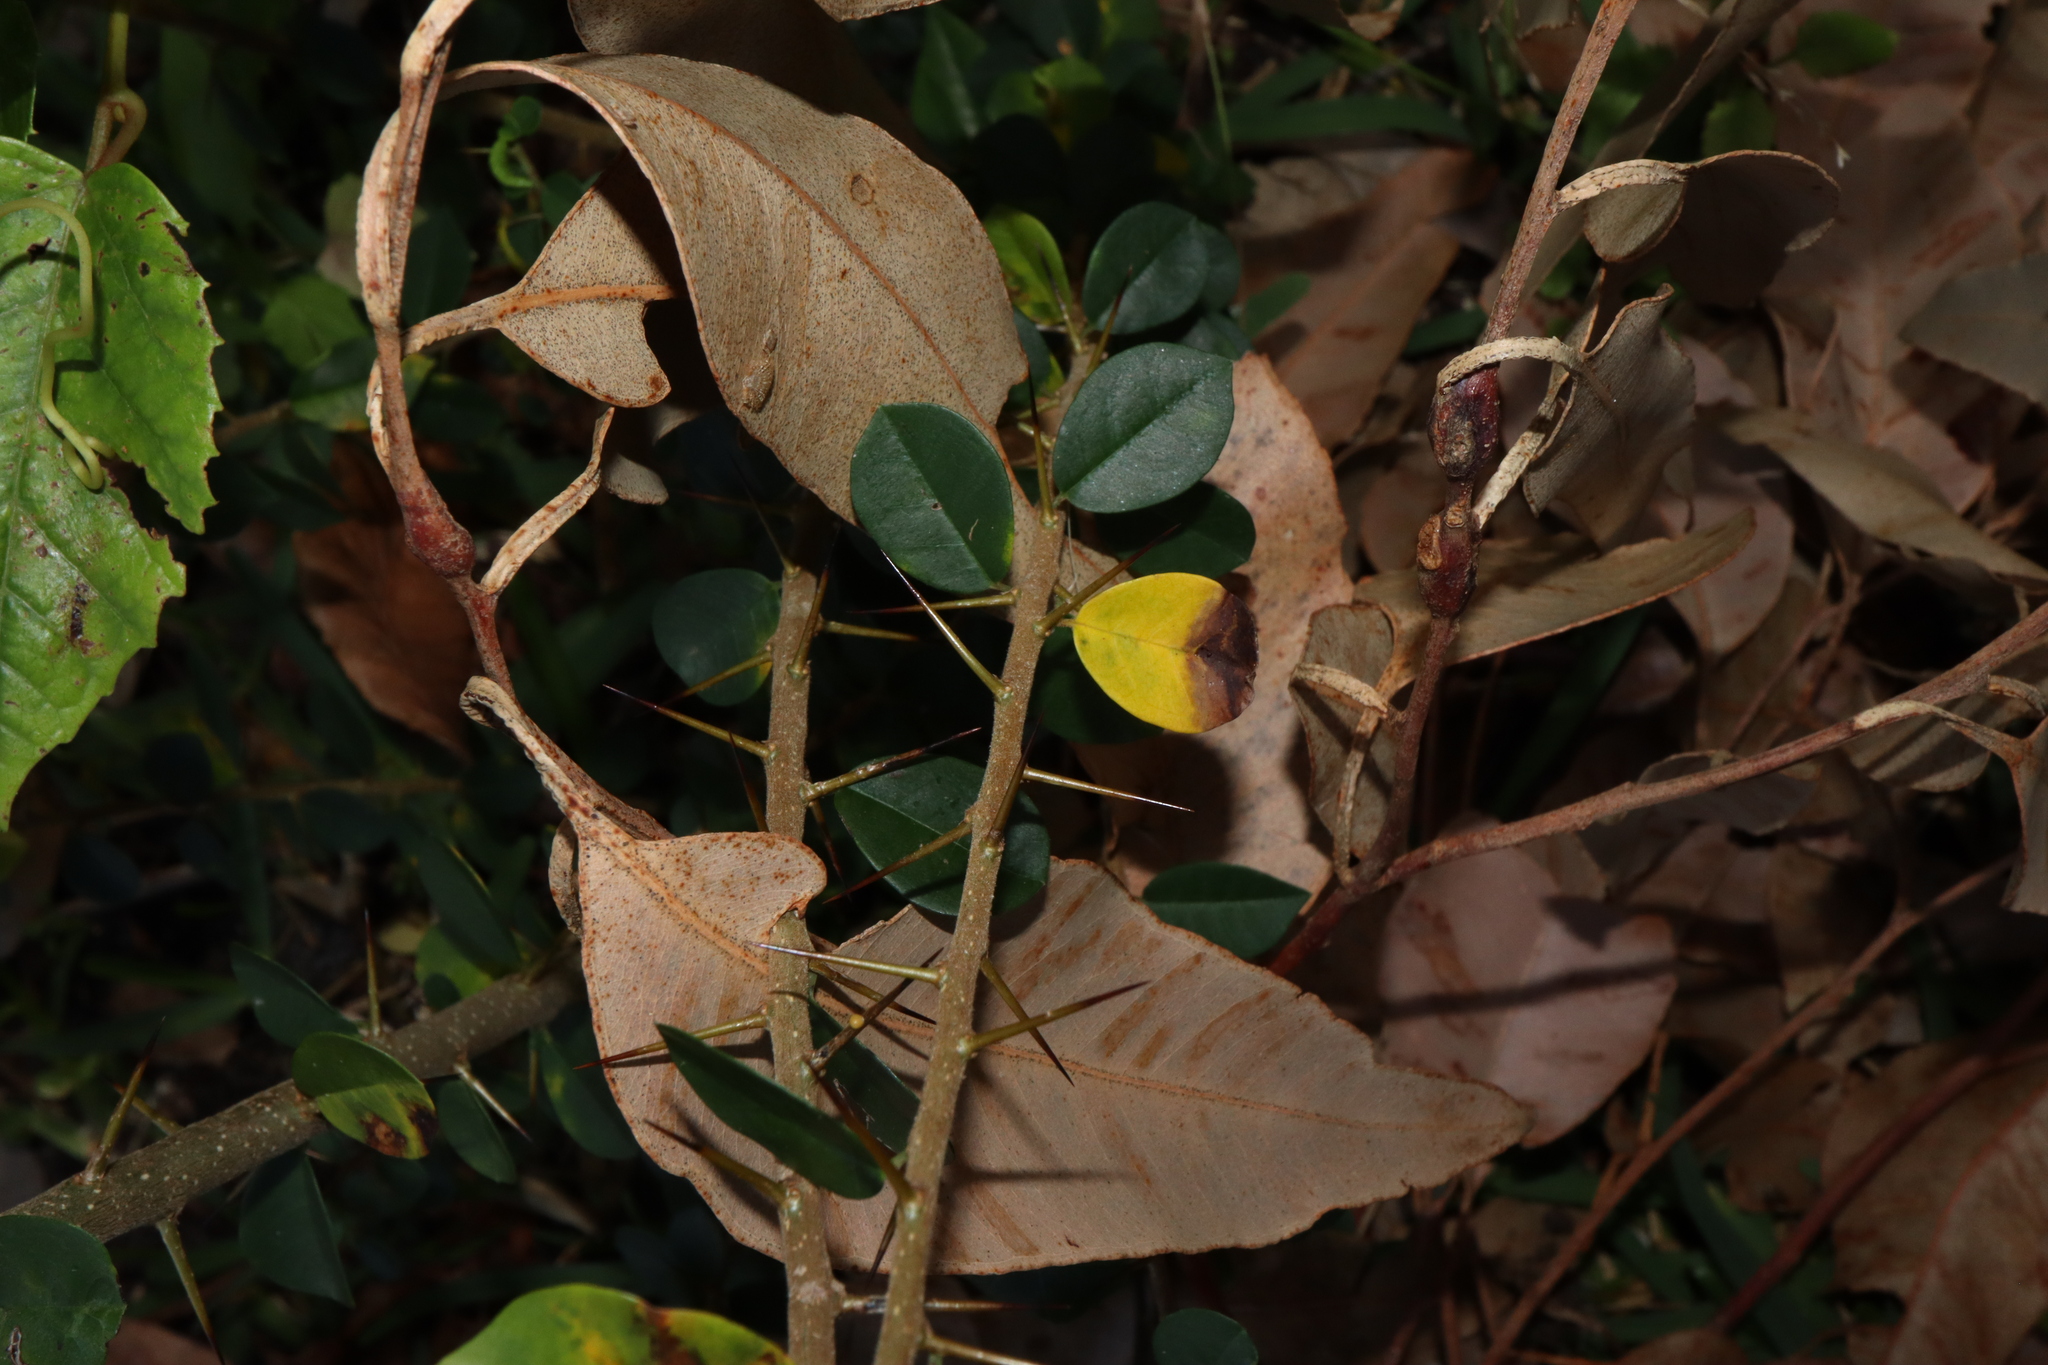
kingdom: Fungi
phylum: Ascomycota
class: Dothideomycetes
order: Mycosphaerellales
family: Mycosphaerellaceae
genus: Zasmidium
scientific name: Zasmidium macluricola
